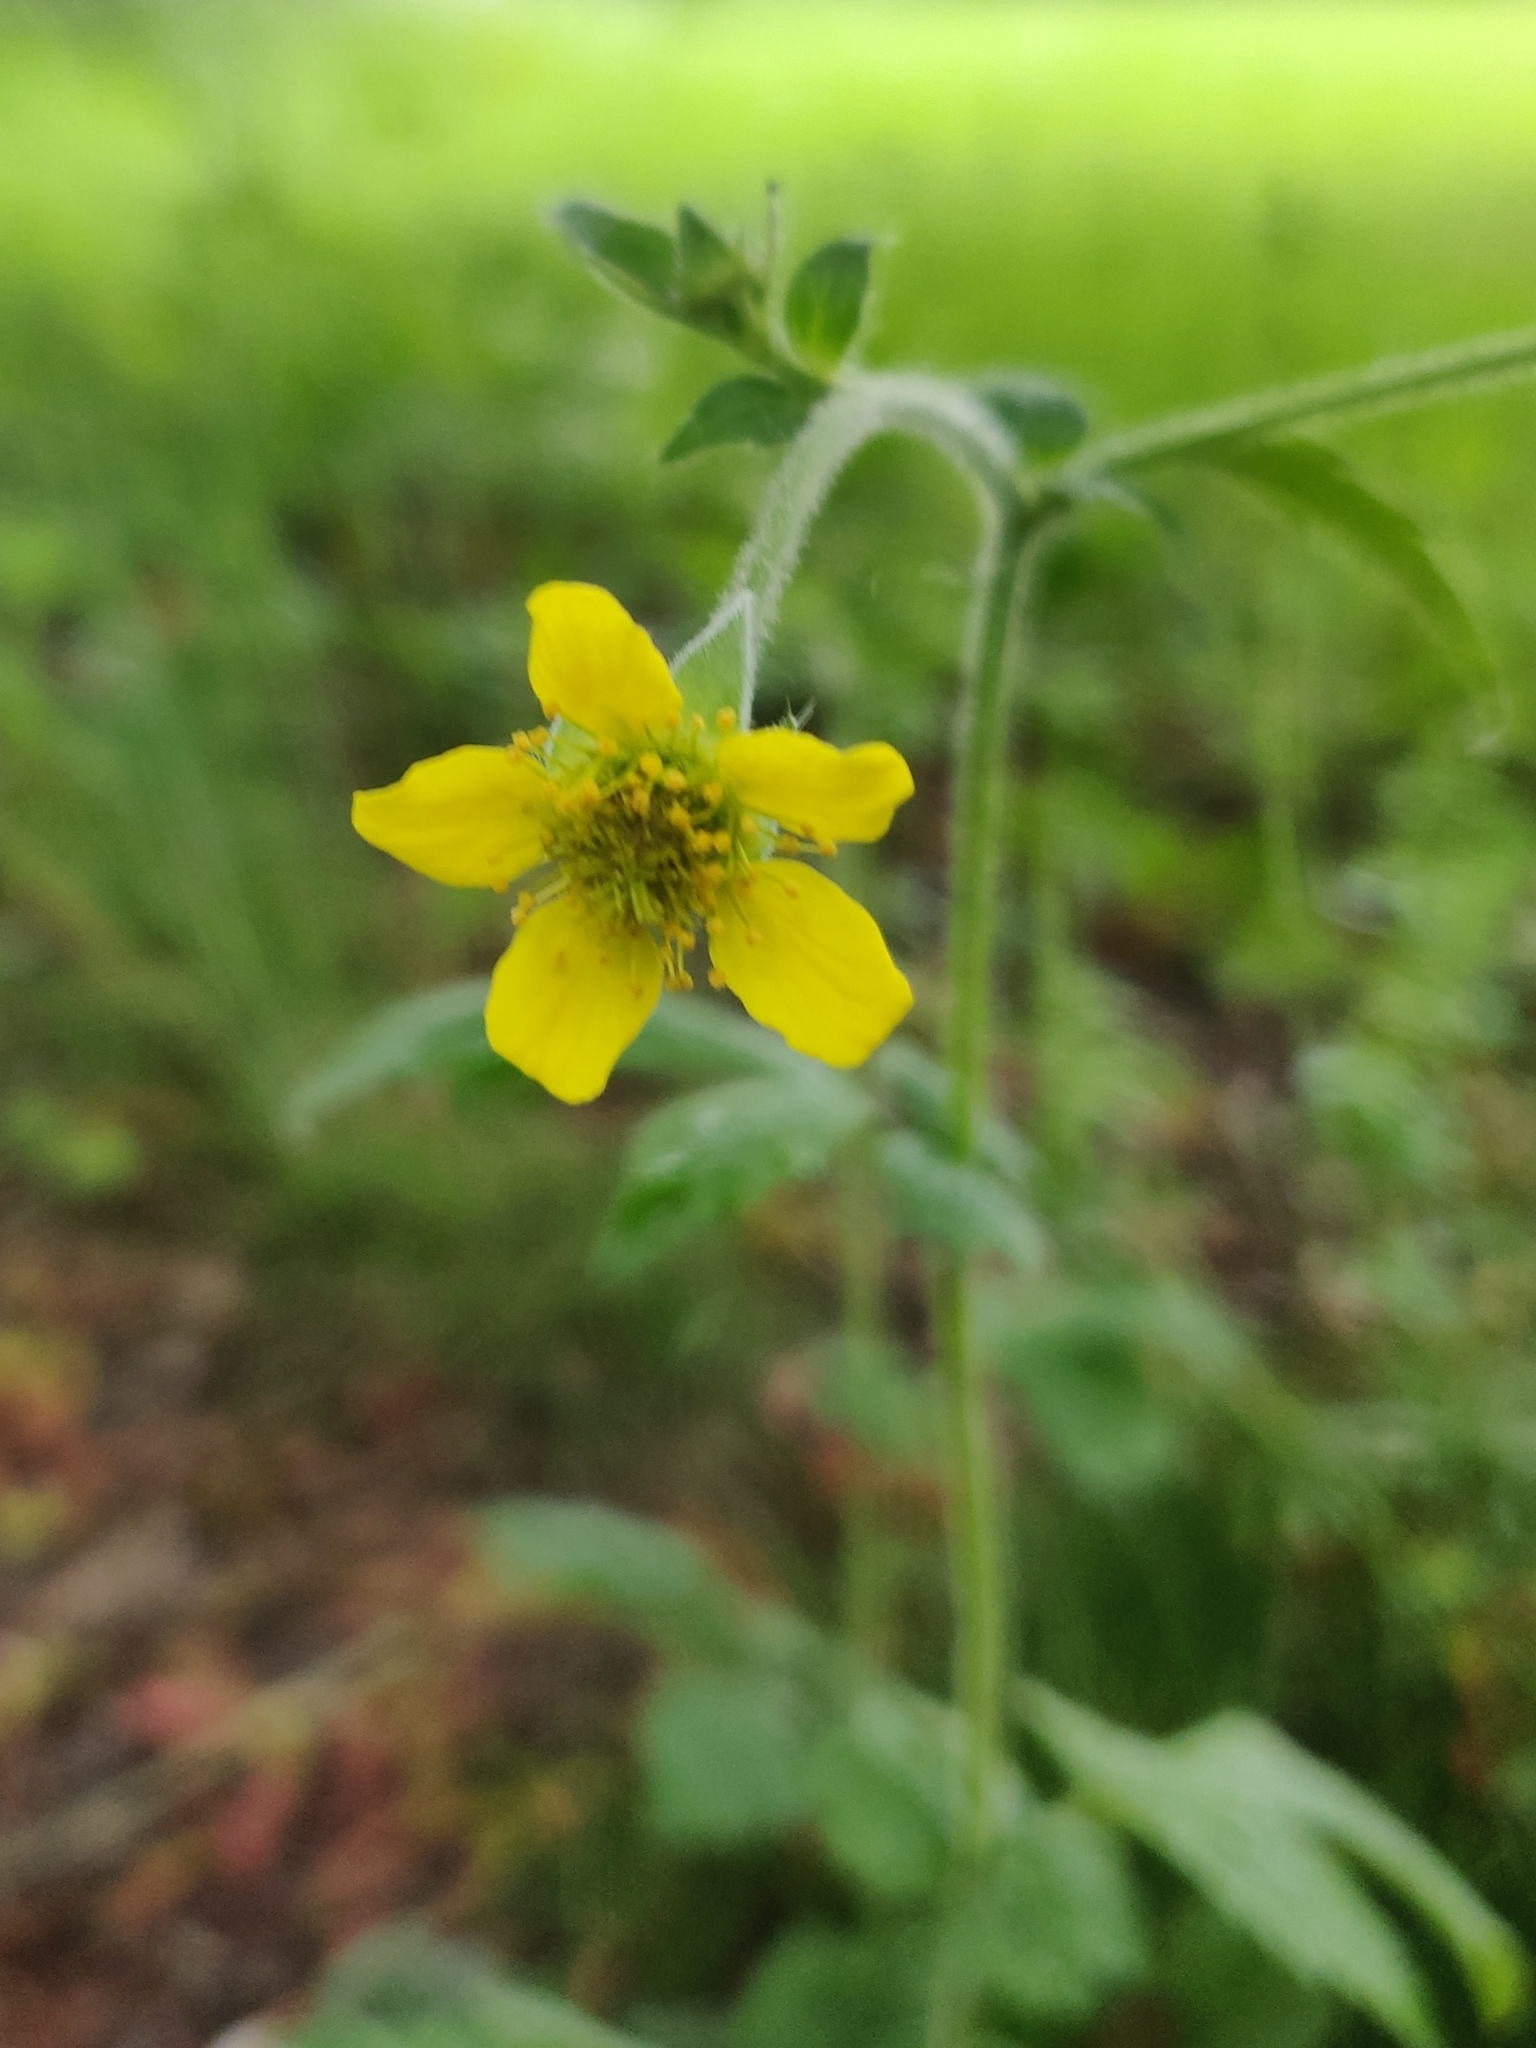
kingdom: Plantae
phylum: Tracheophyta
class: Magnoliopsida
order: Rosales
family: Rosaceae
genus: Geum
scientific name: Geum urbanum
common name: Wood avens
